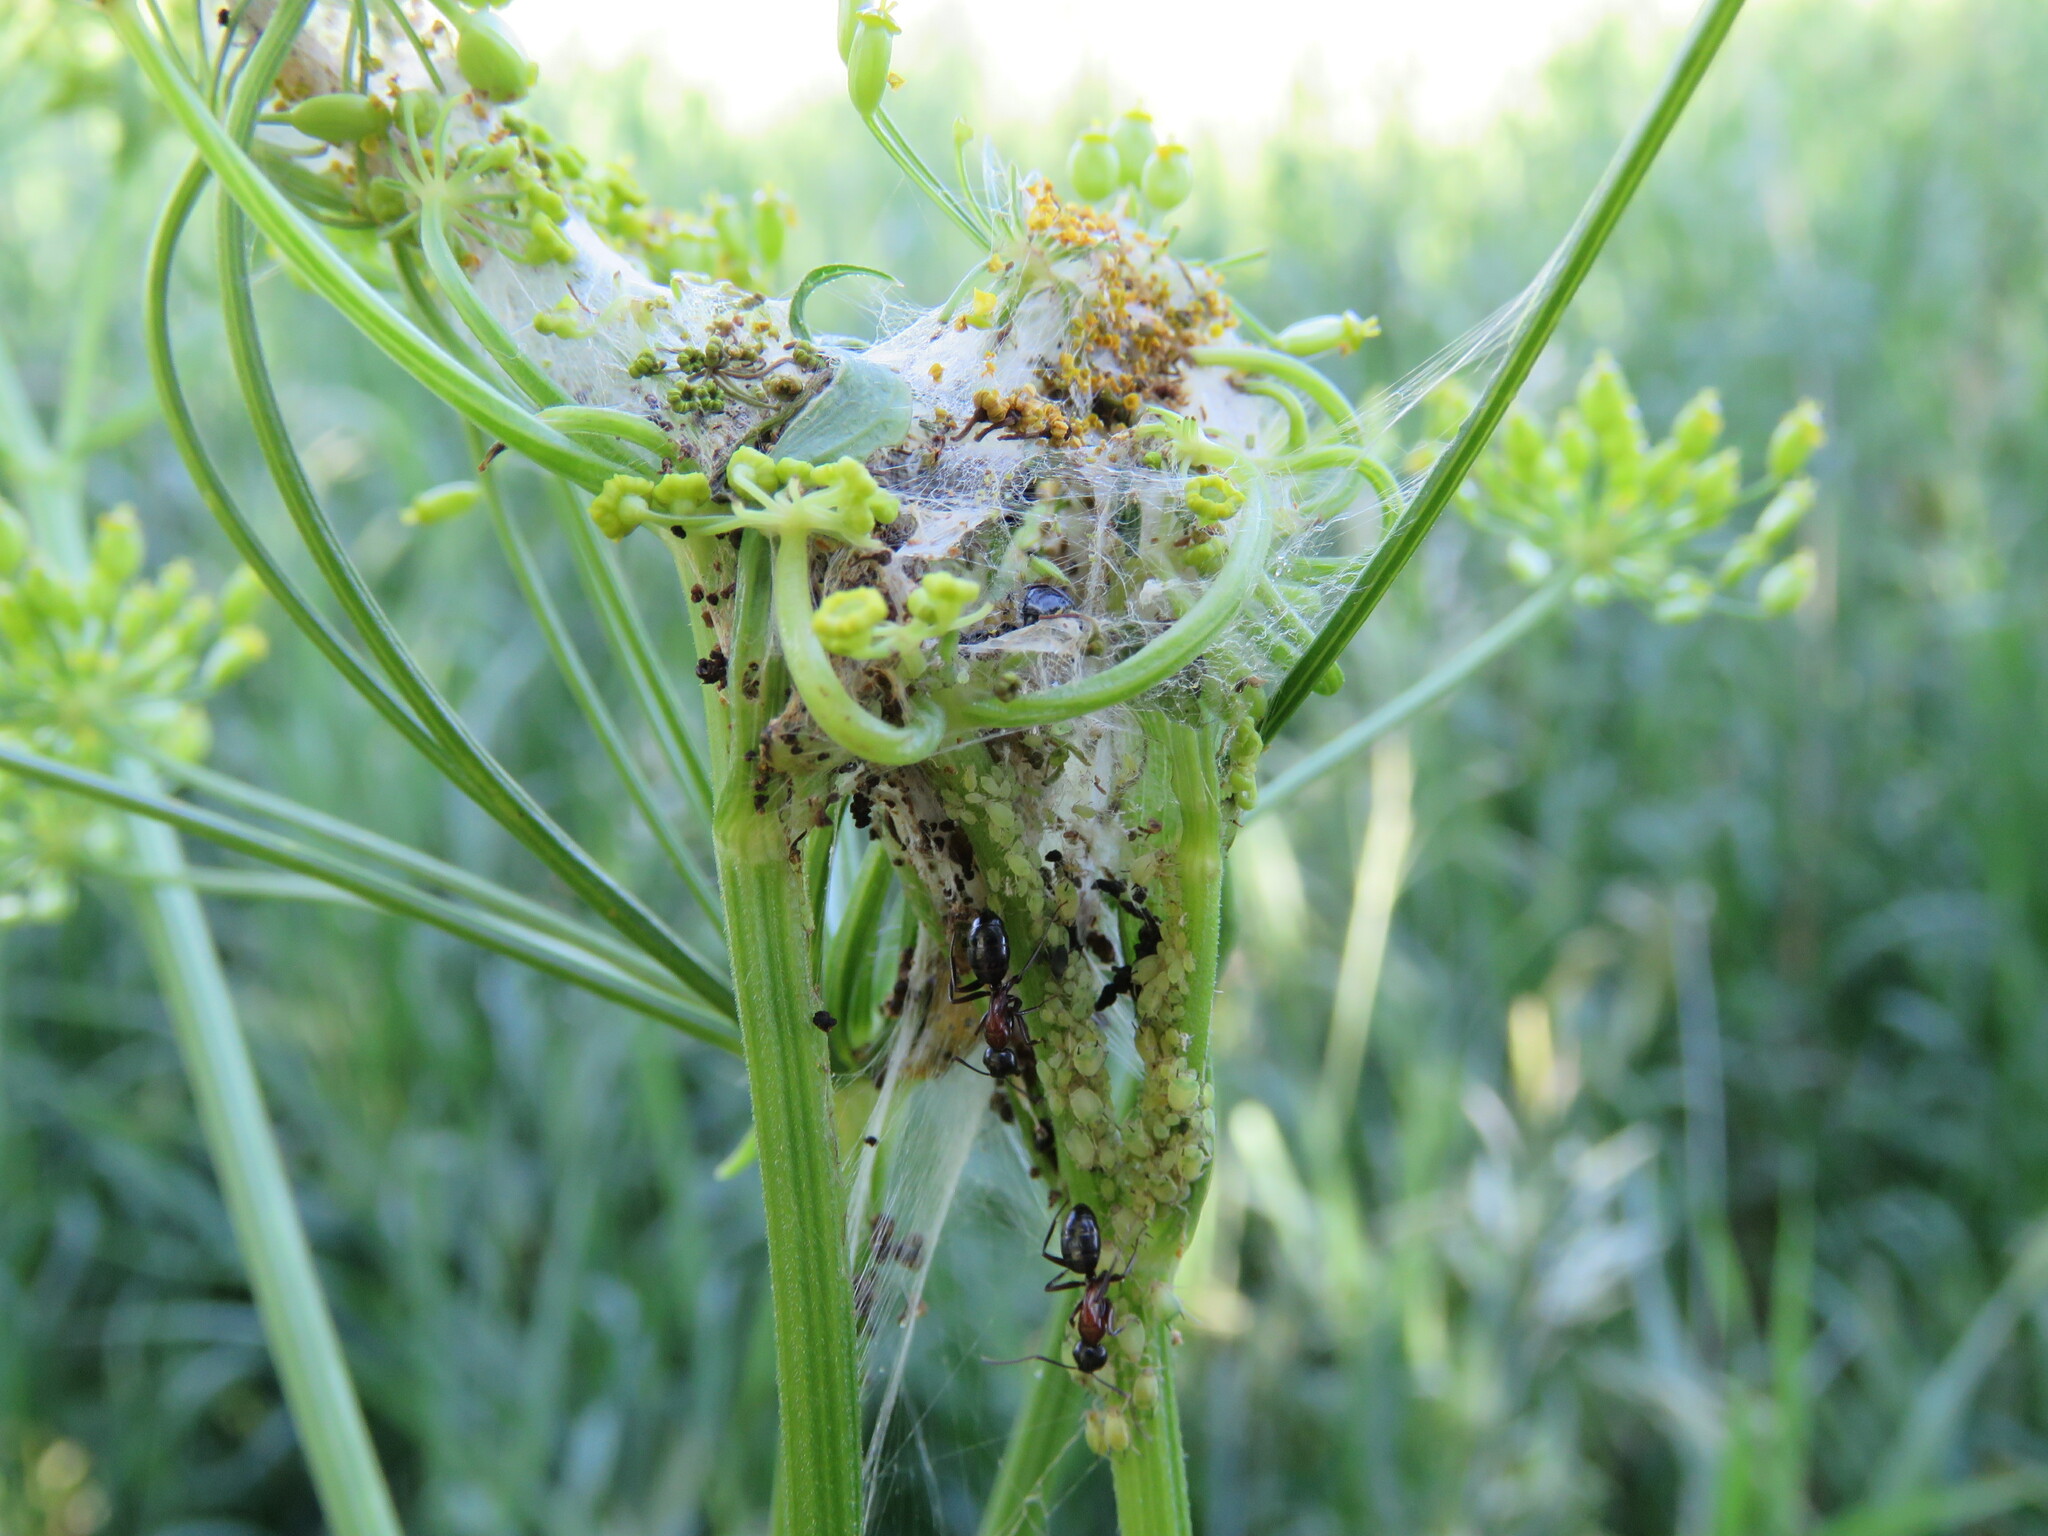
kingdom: Animalia
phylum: Arthropoda
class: Insecta
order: Hymenoptera
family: Formicidae
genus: Camponotus
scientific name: Camponotus novaeboracensis
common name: New york carpenter ant
